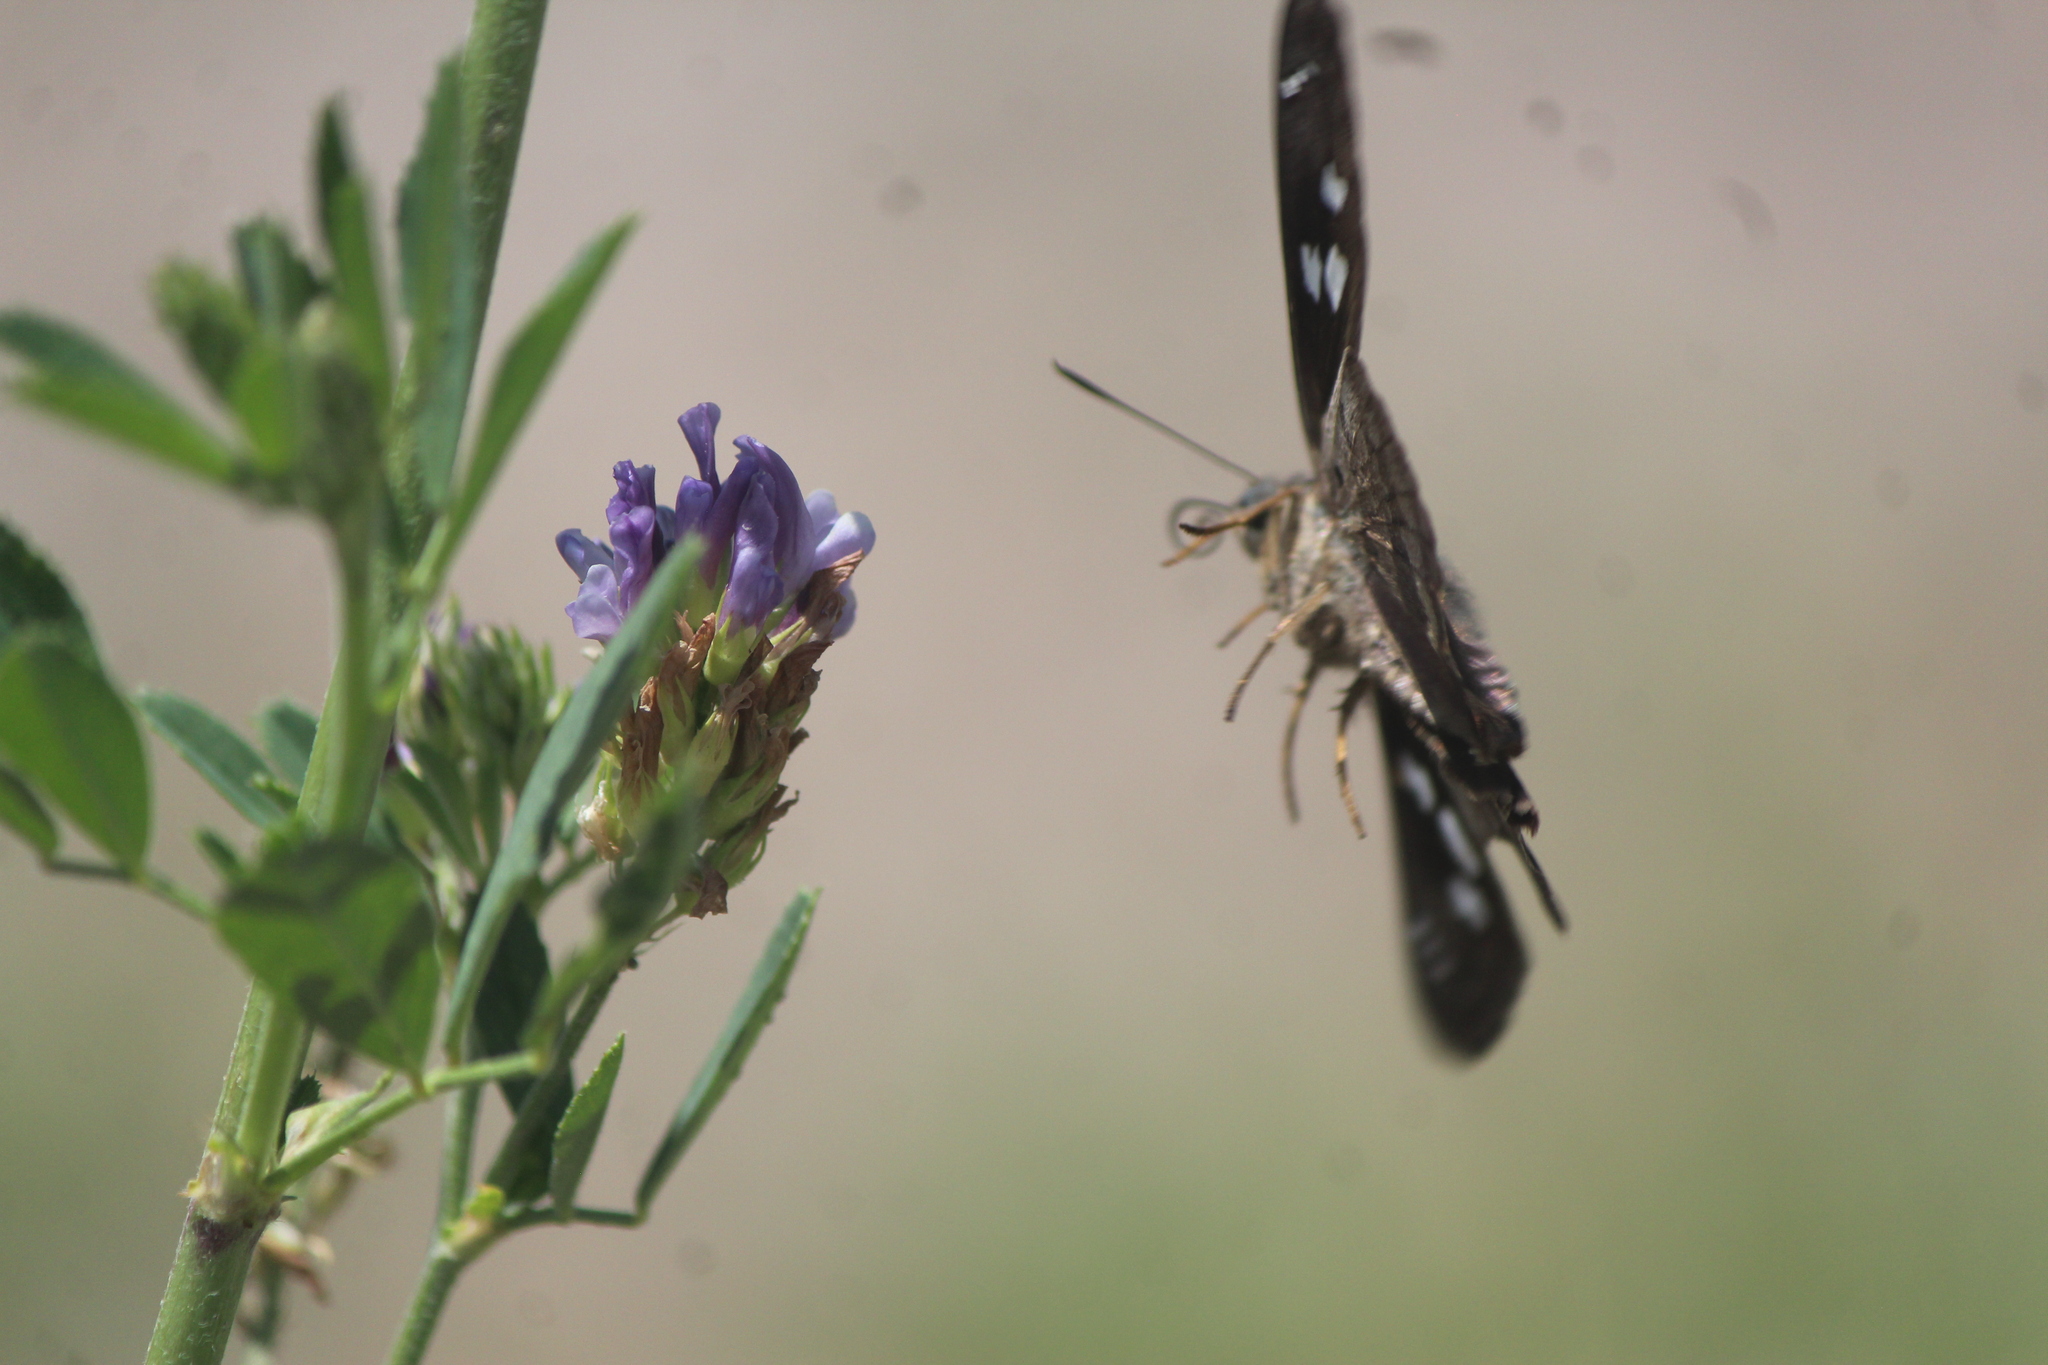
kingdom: Animalia
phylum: Arthropoda
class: Insecta
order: Lepidoptera
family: Hesperiidae
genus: Polygonus
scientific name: Polygonus
